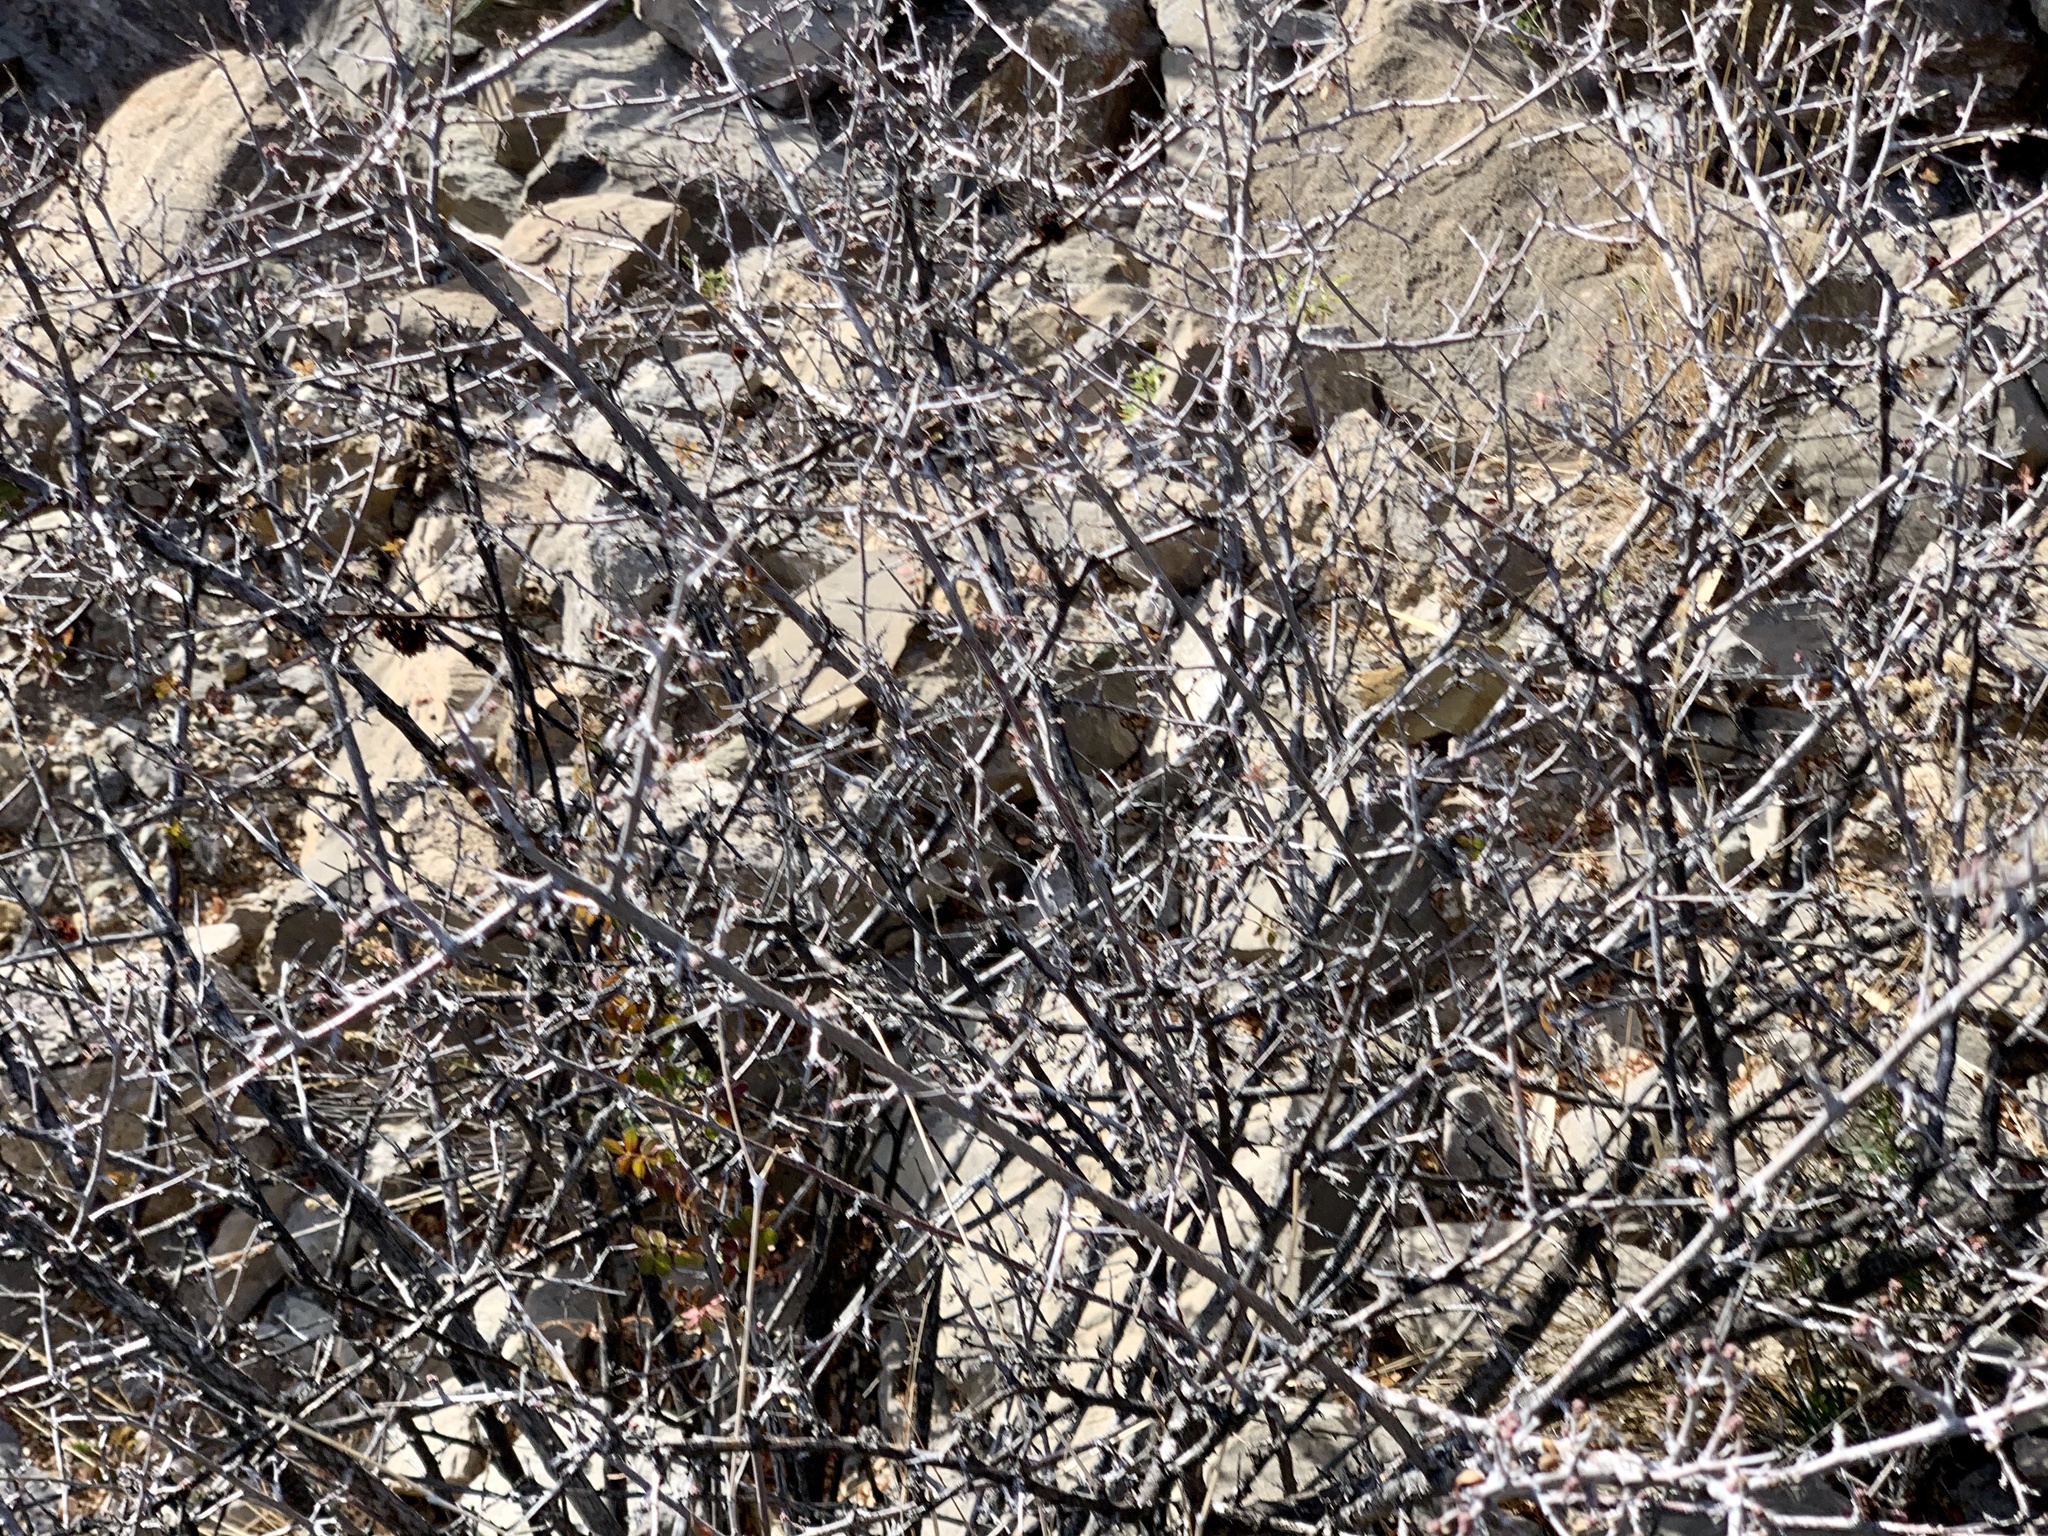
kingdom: Plantae
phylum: Tracheophyta
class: Magnoliopsida
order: Sapindales
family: Anacardiaceae
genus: Rhus
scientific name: Rhus microphylla
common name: Desert sumac
